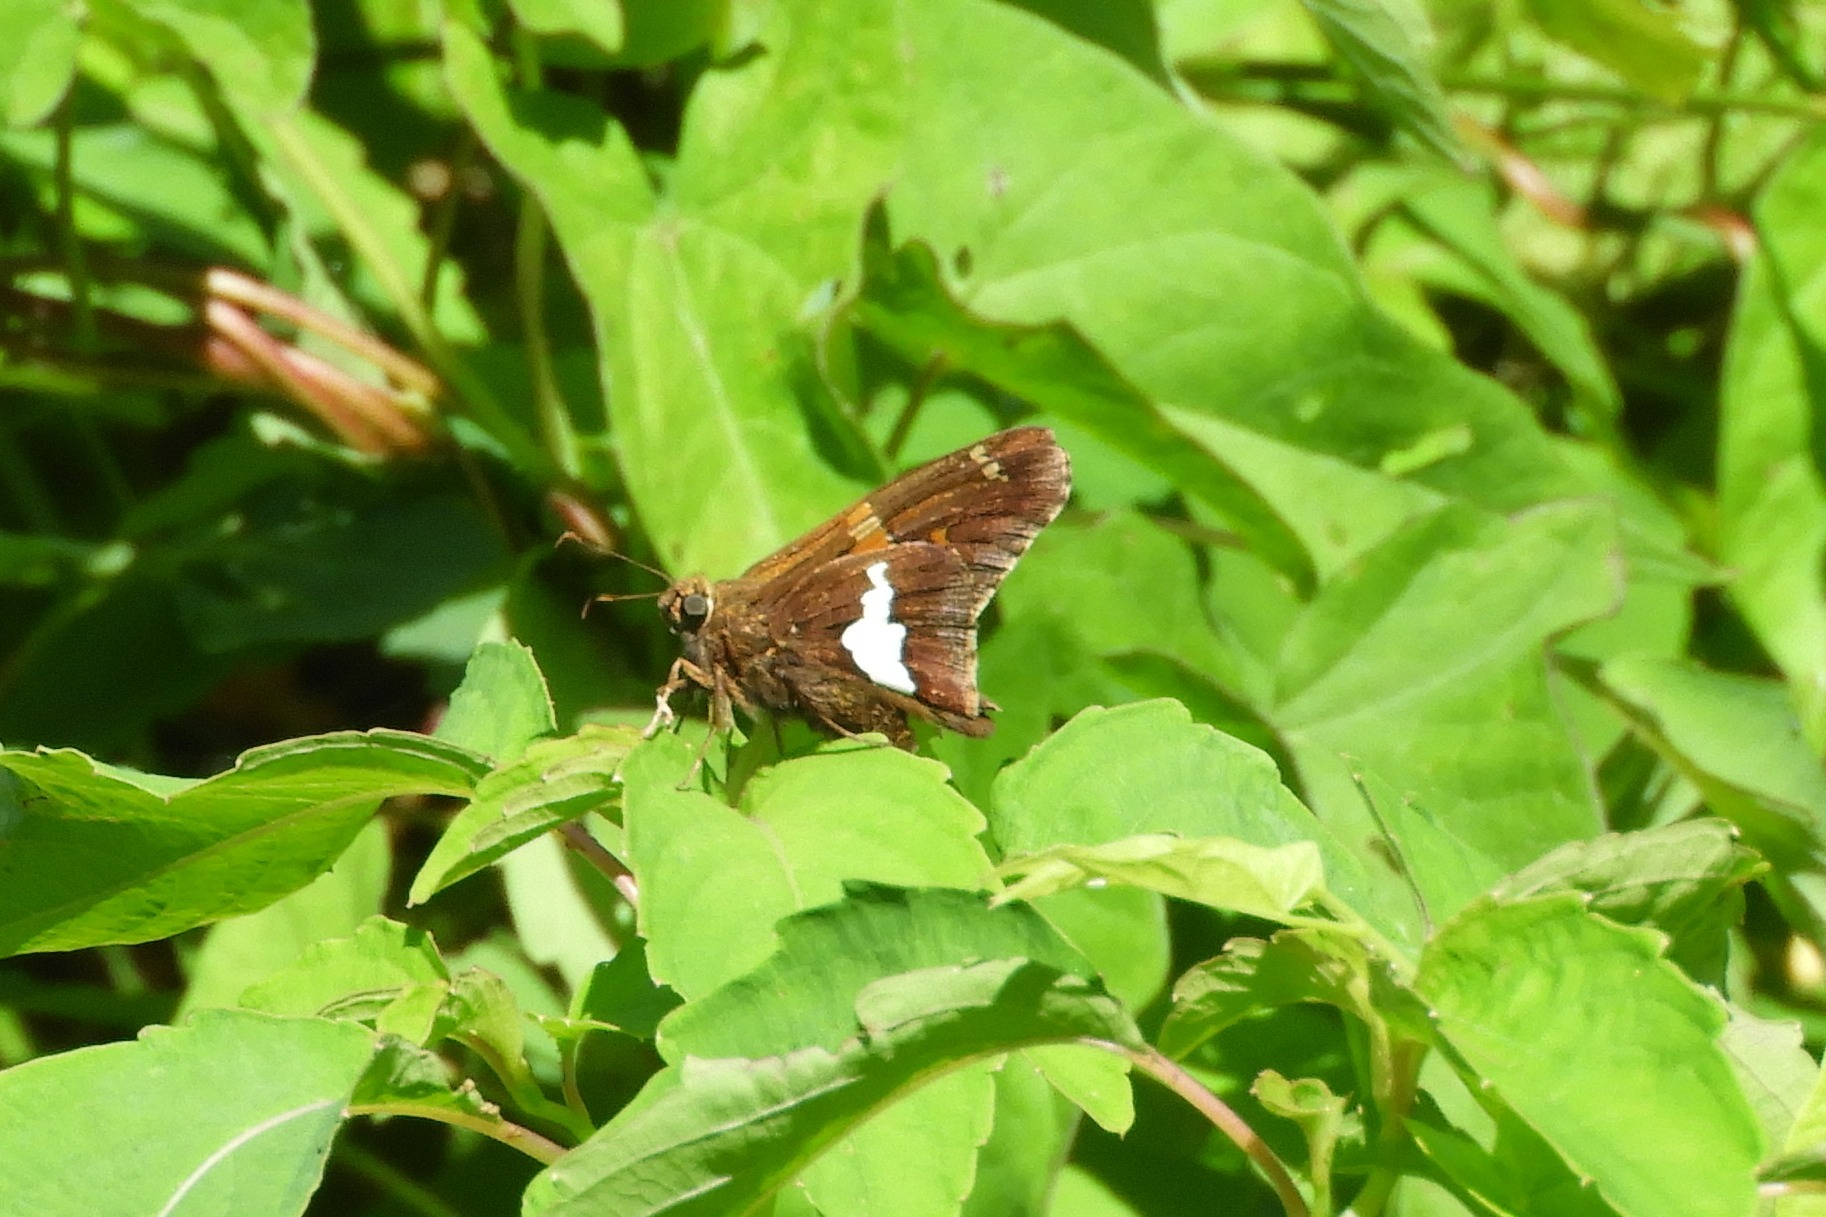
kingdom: Animalia
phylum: Arthropoda
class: Insecta
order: Lepidoptera
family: Hesperiidae
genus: Epargyreus
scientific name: Epargyreus clarus
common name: Silver-spotted skipper
